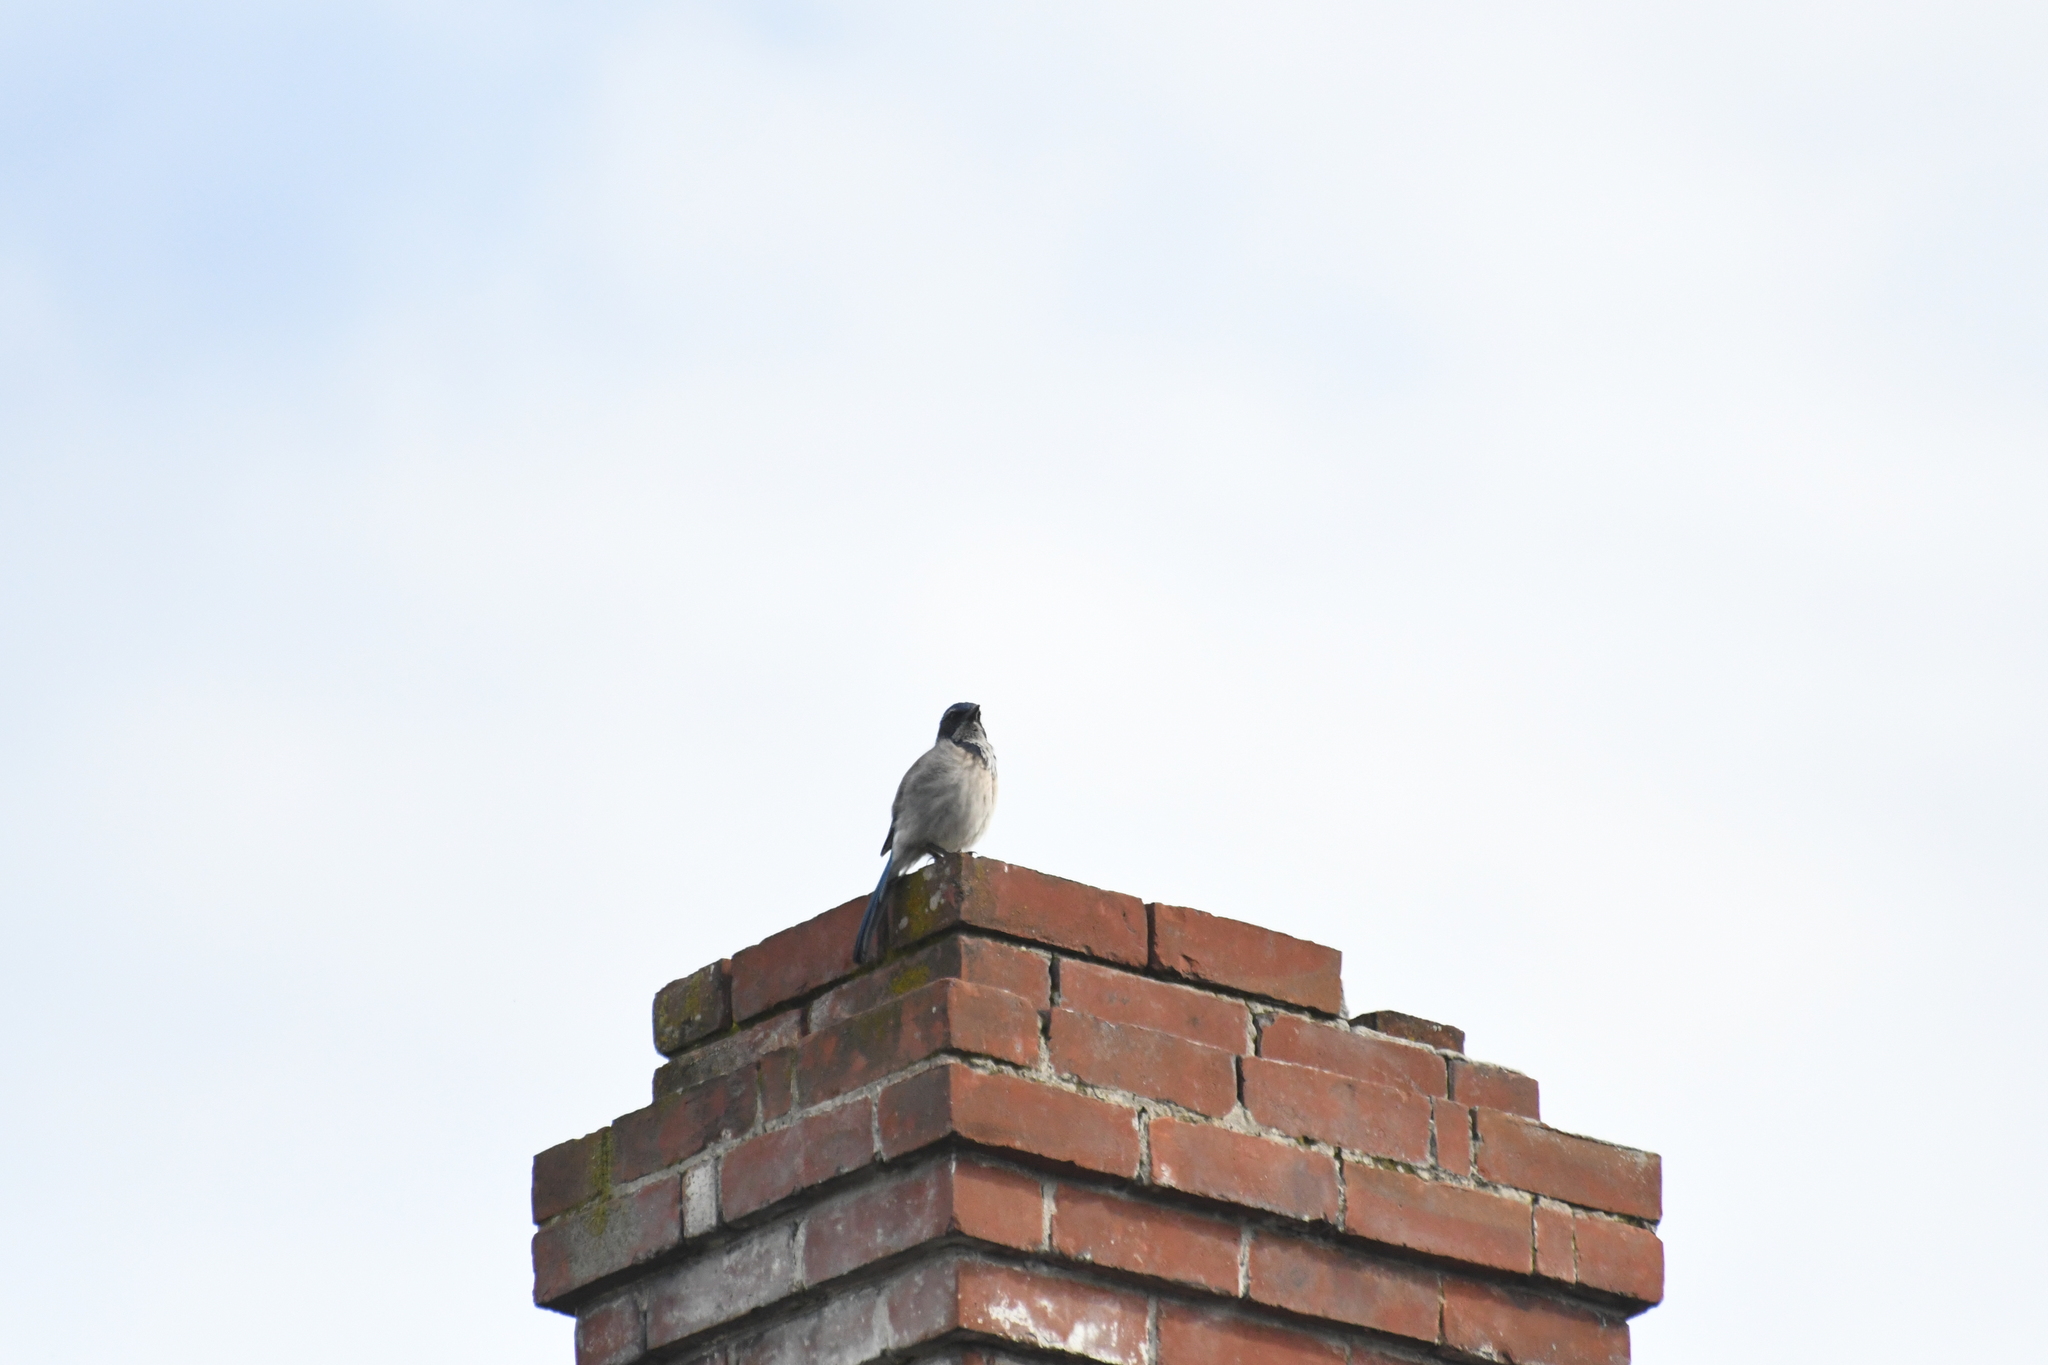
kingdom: Animalia
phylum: Chordata
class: Aves
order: Passeriformes
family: Corvidae
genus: Aphelocoma
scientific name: Aphelocoma californica
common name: California scrub-jay
